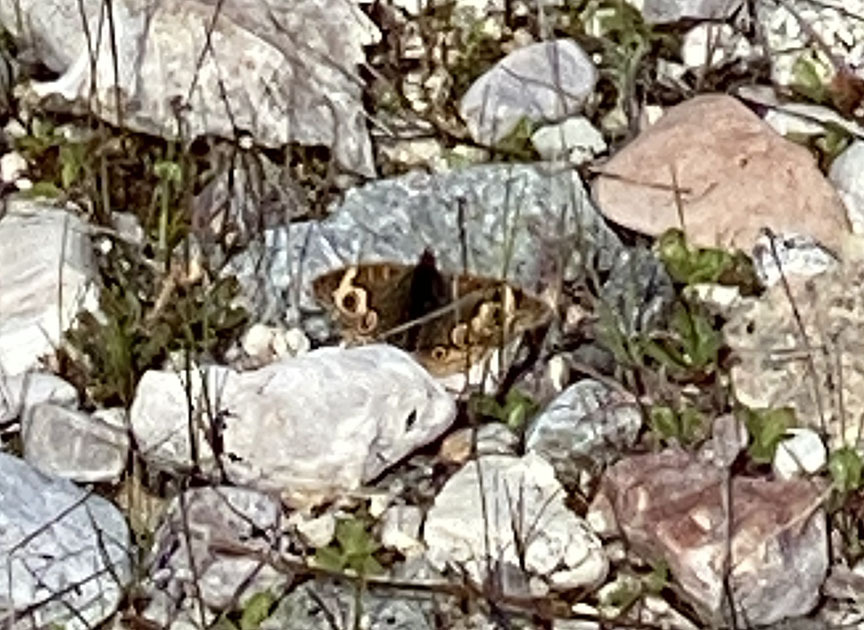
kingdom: Animalia
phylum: Arthropoda
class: Insecta
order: Lepidoptera
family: Nymphalidae
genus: Junonia
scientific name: Junonia grisea
